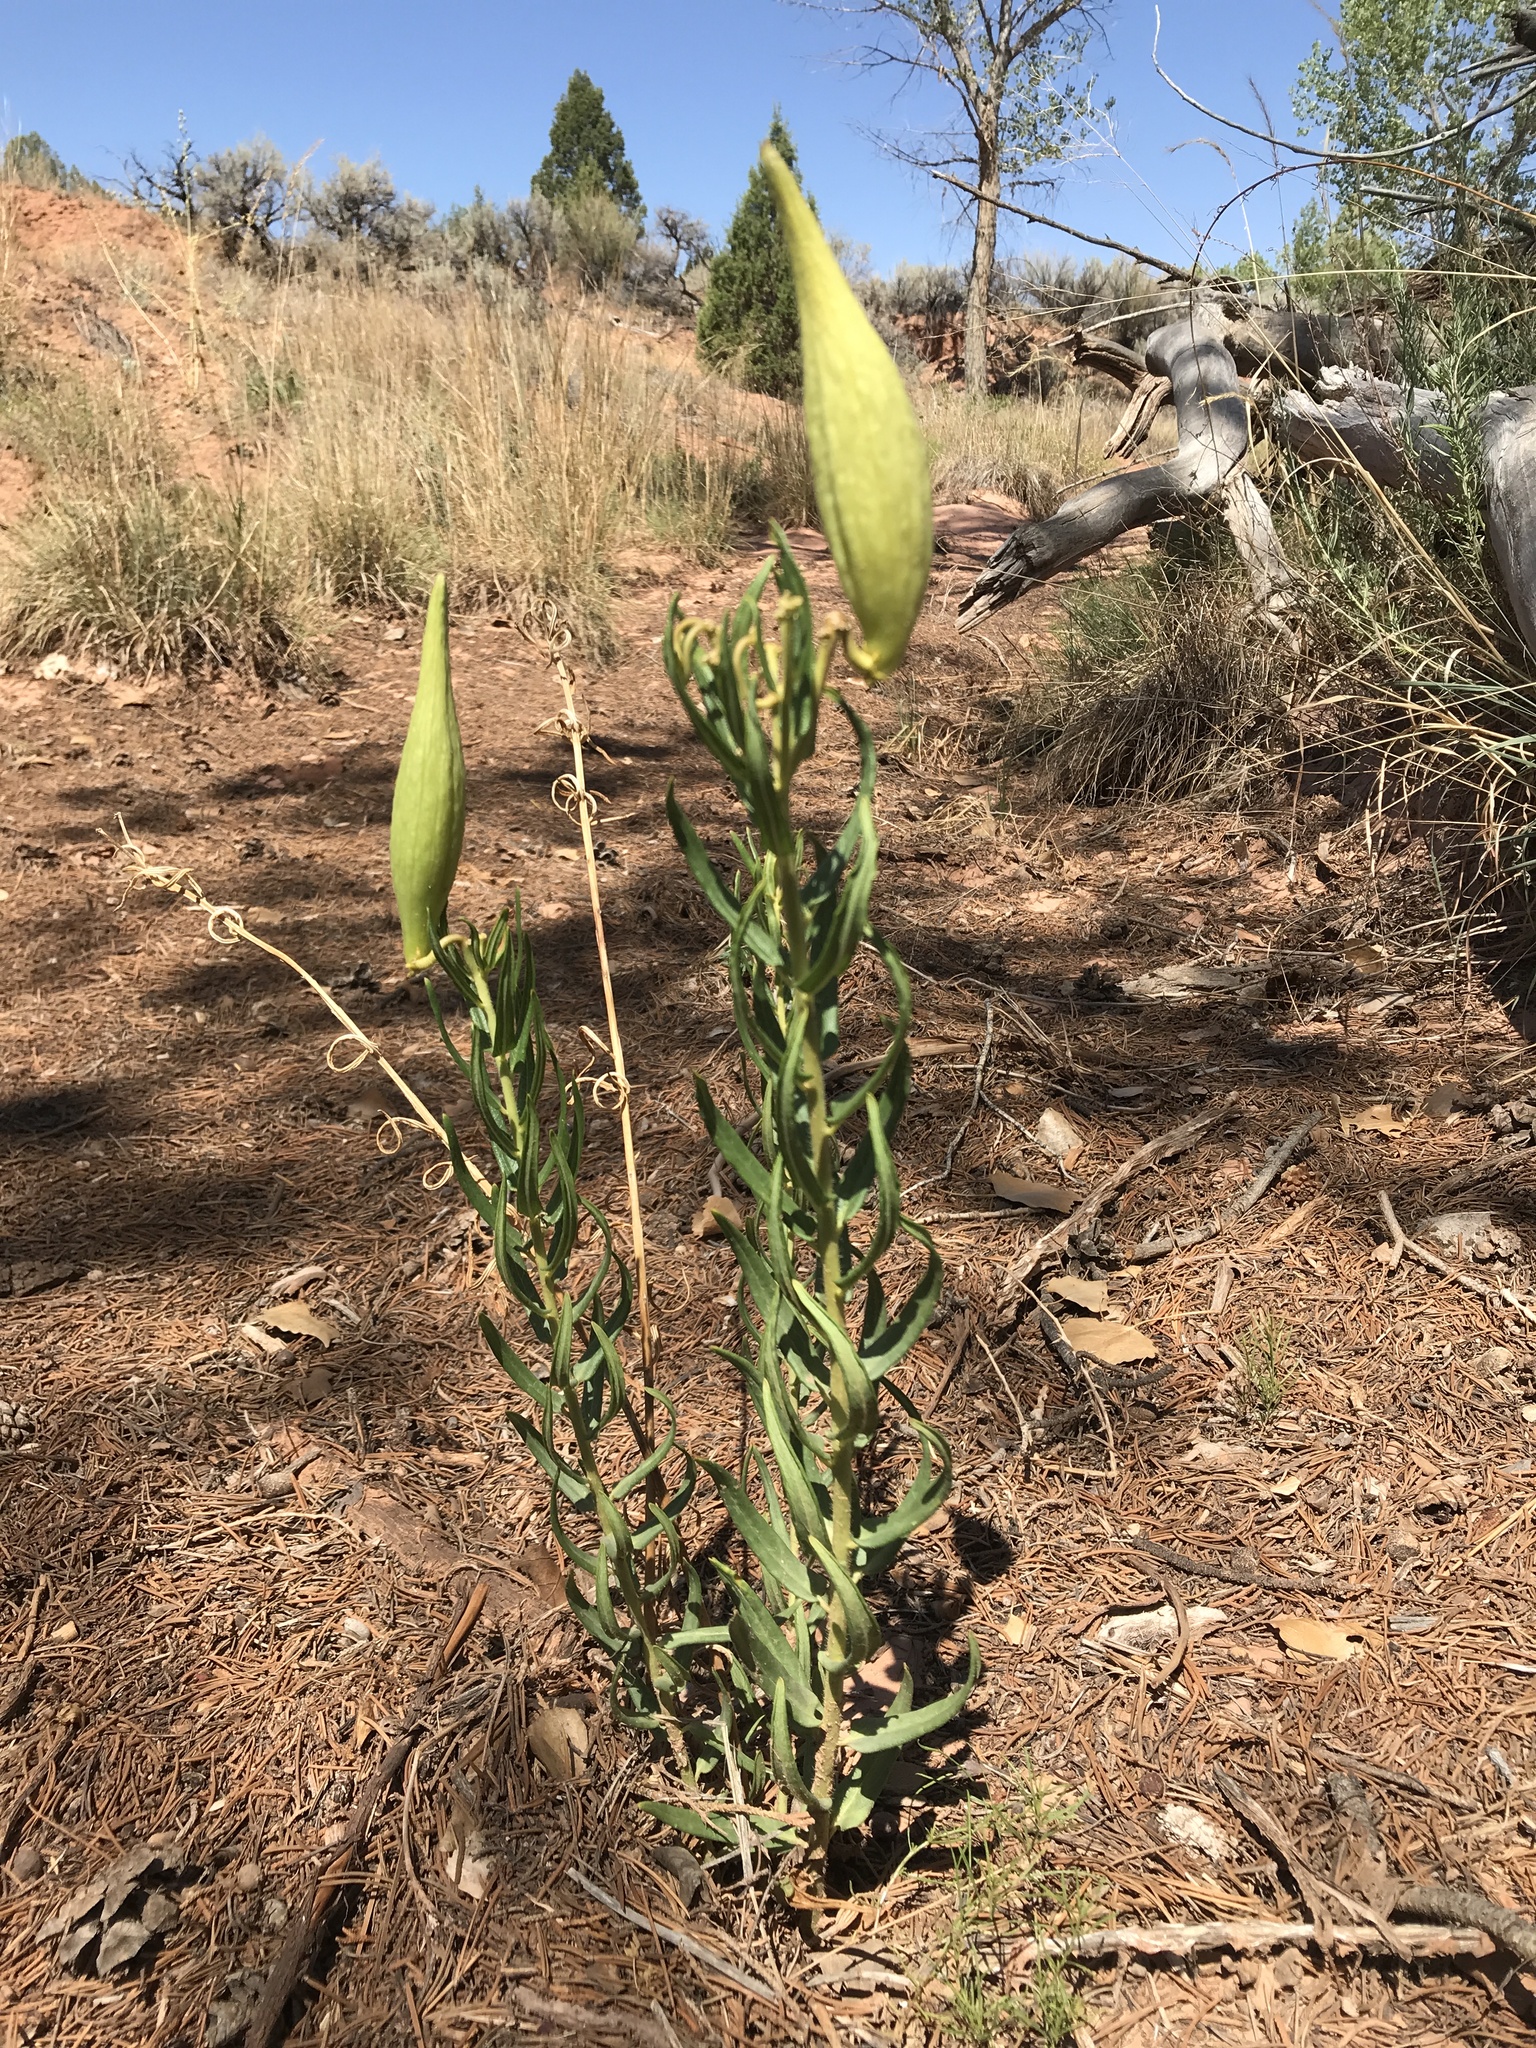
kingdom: Plantae
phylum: Tracheophyta
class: Magnoliopsida
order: Gentianales
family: Apocynaceae
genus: Asclepias
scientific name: Asclepias tuberosa
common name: Butterfly milkweed
